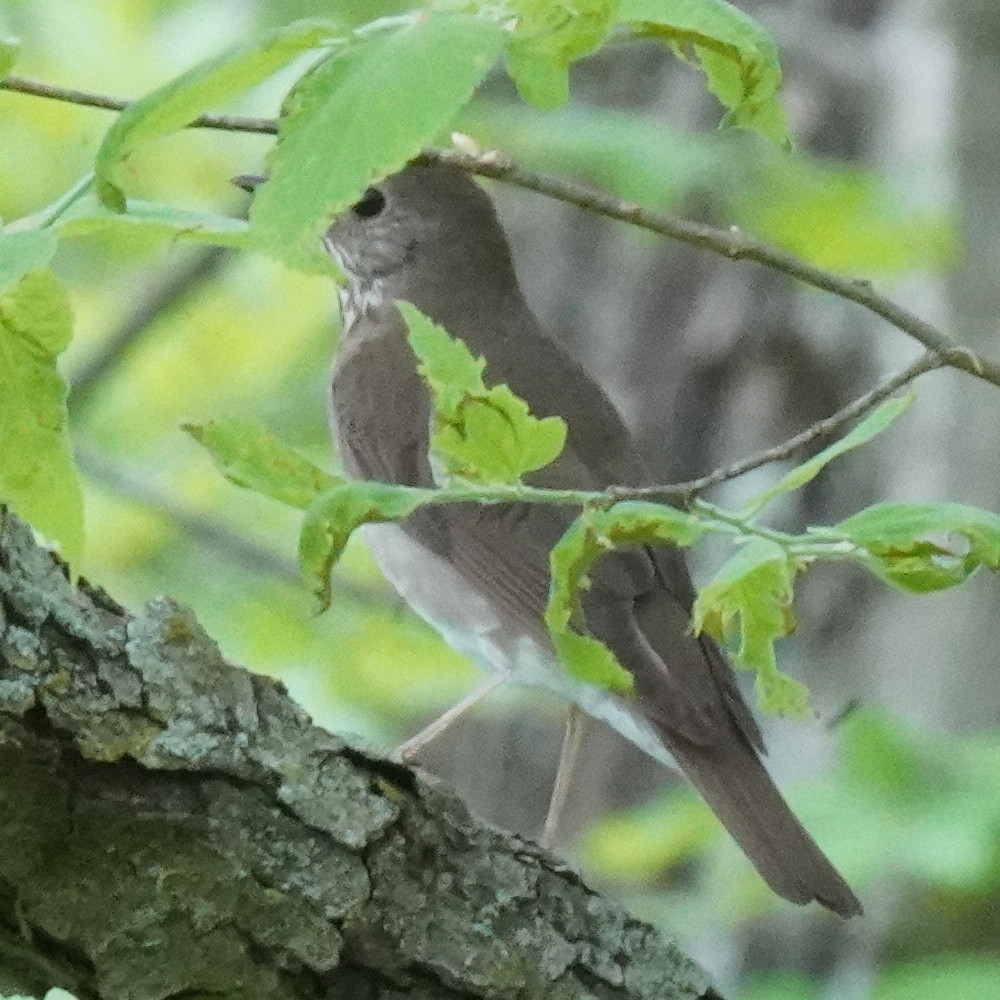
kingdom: Animalia
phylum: Chordata
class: Aves
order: Passeriformes
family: Turdidae
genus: Catharus
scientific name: Catharus minimus
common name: Grey-cheeked thrush
